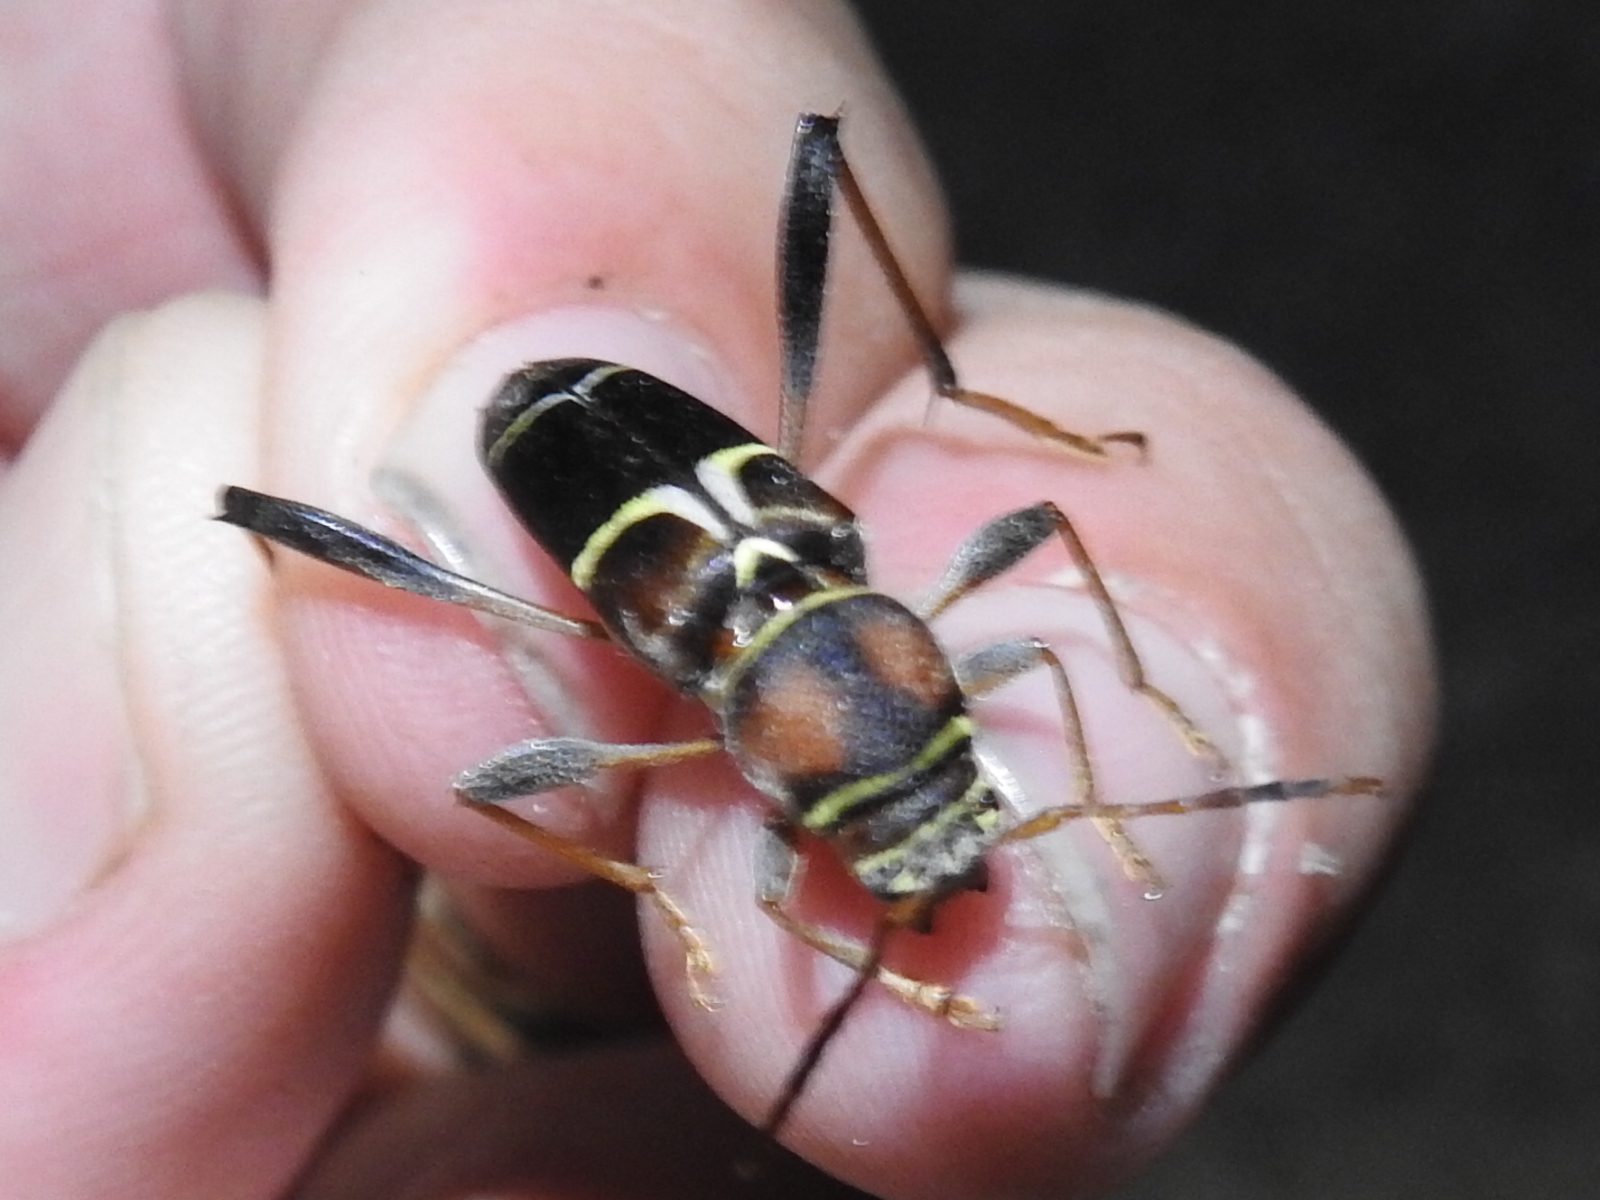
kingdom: Animalia
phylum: Arthropoda
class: Insecta
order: Coleoptera
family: Cerambycidae
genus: Neoclytus
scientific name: Neoclytus mucronatus
